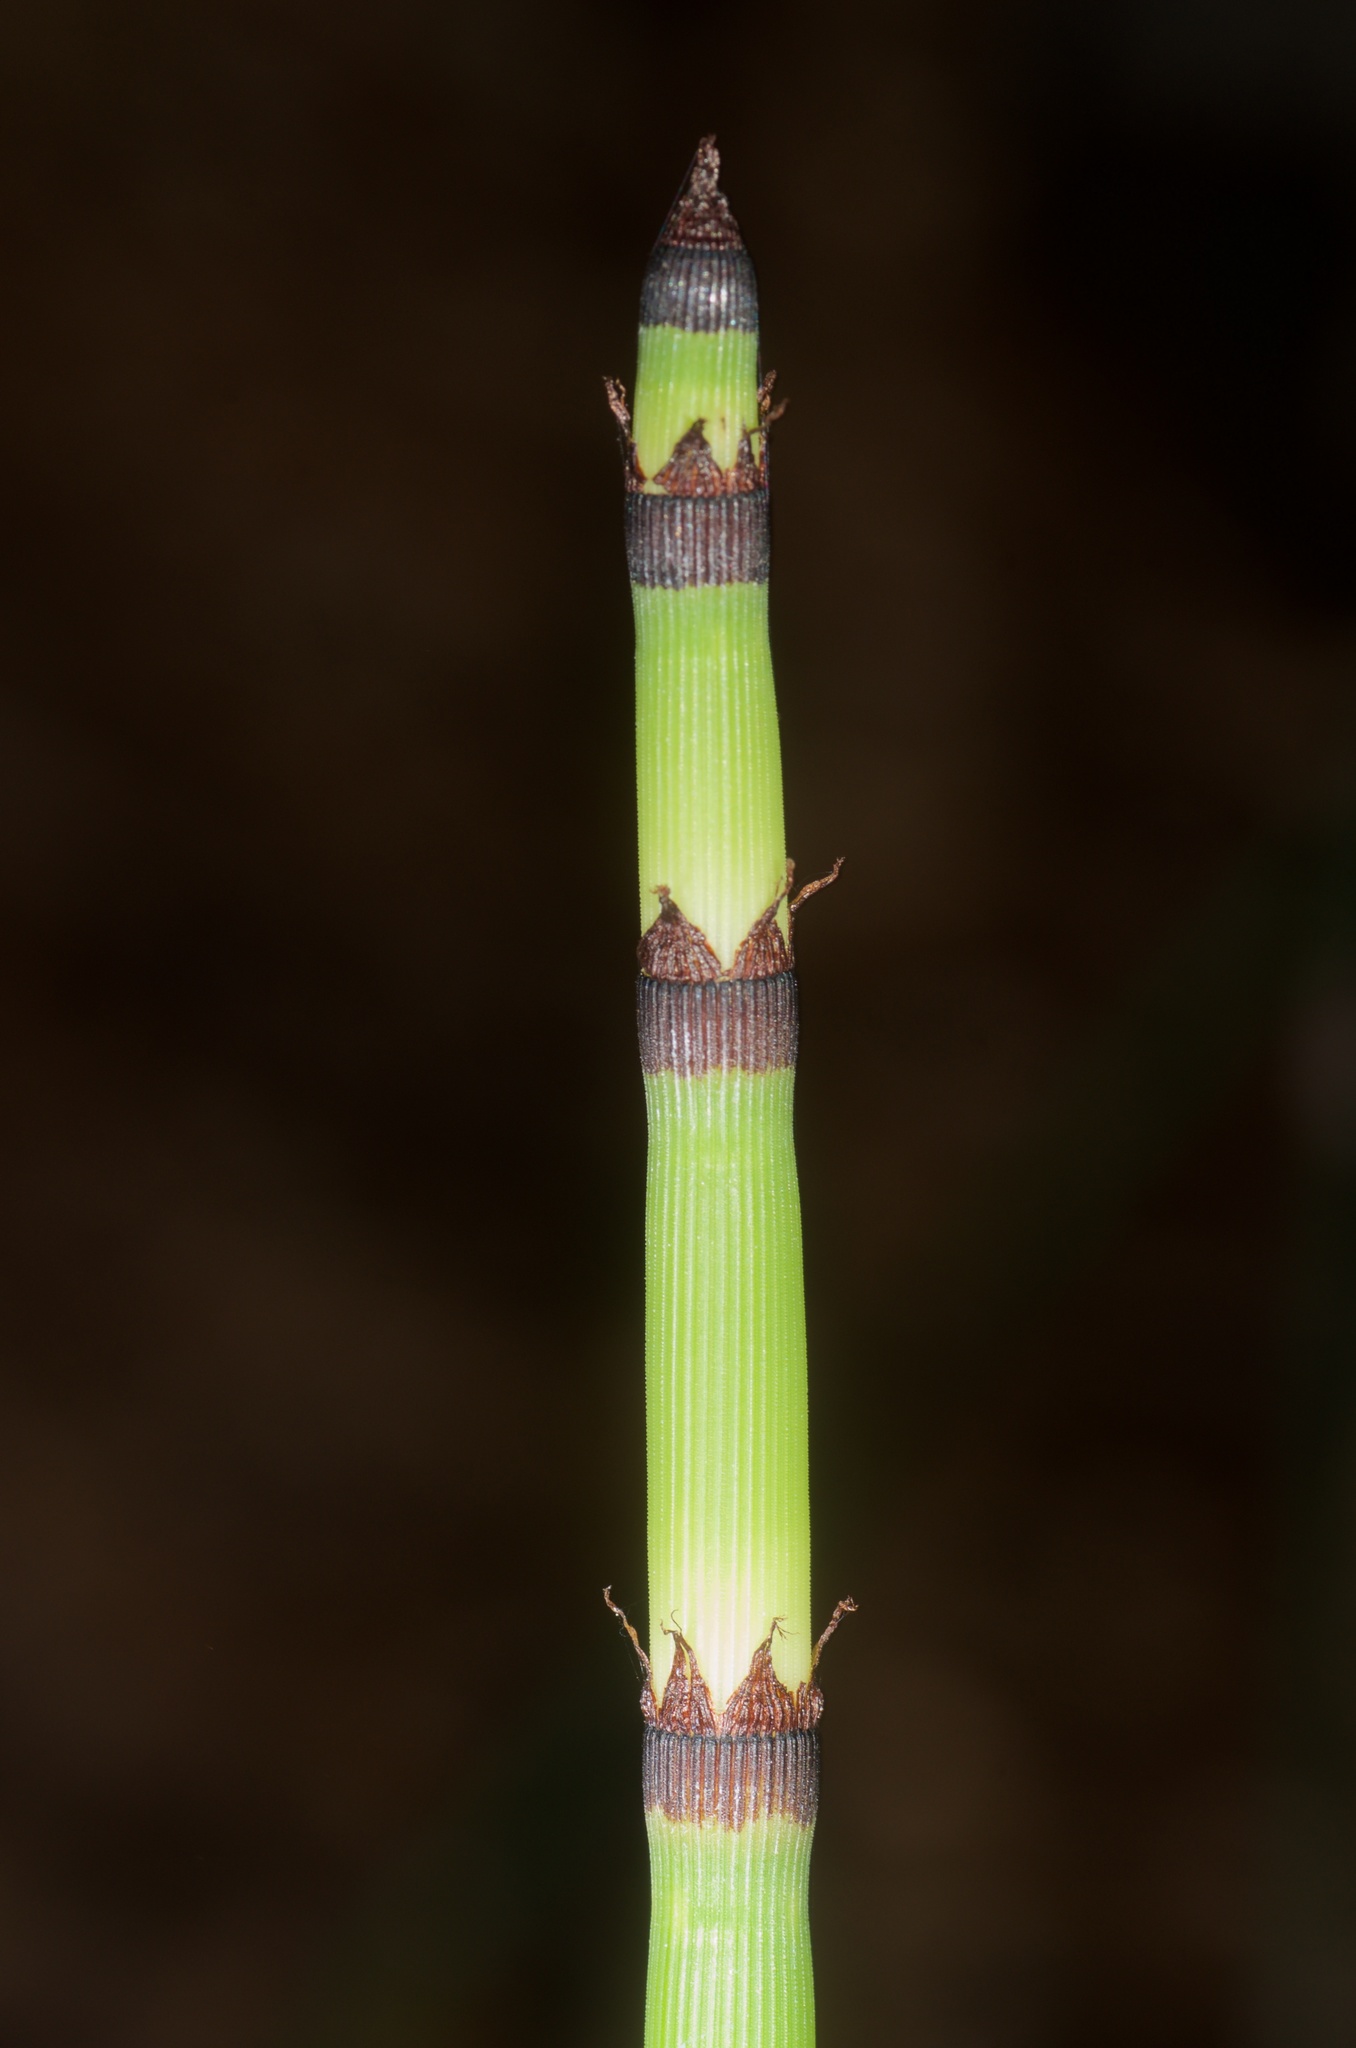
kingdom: Plantae
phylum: Tracheophyta
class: Polypodiopsida
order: Equisetales
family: Equisetaceae
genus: Equisetum
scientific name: Equisetum praealtum
